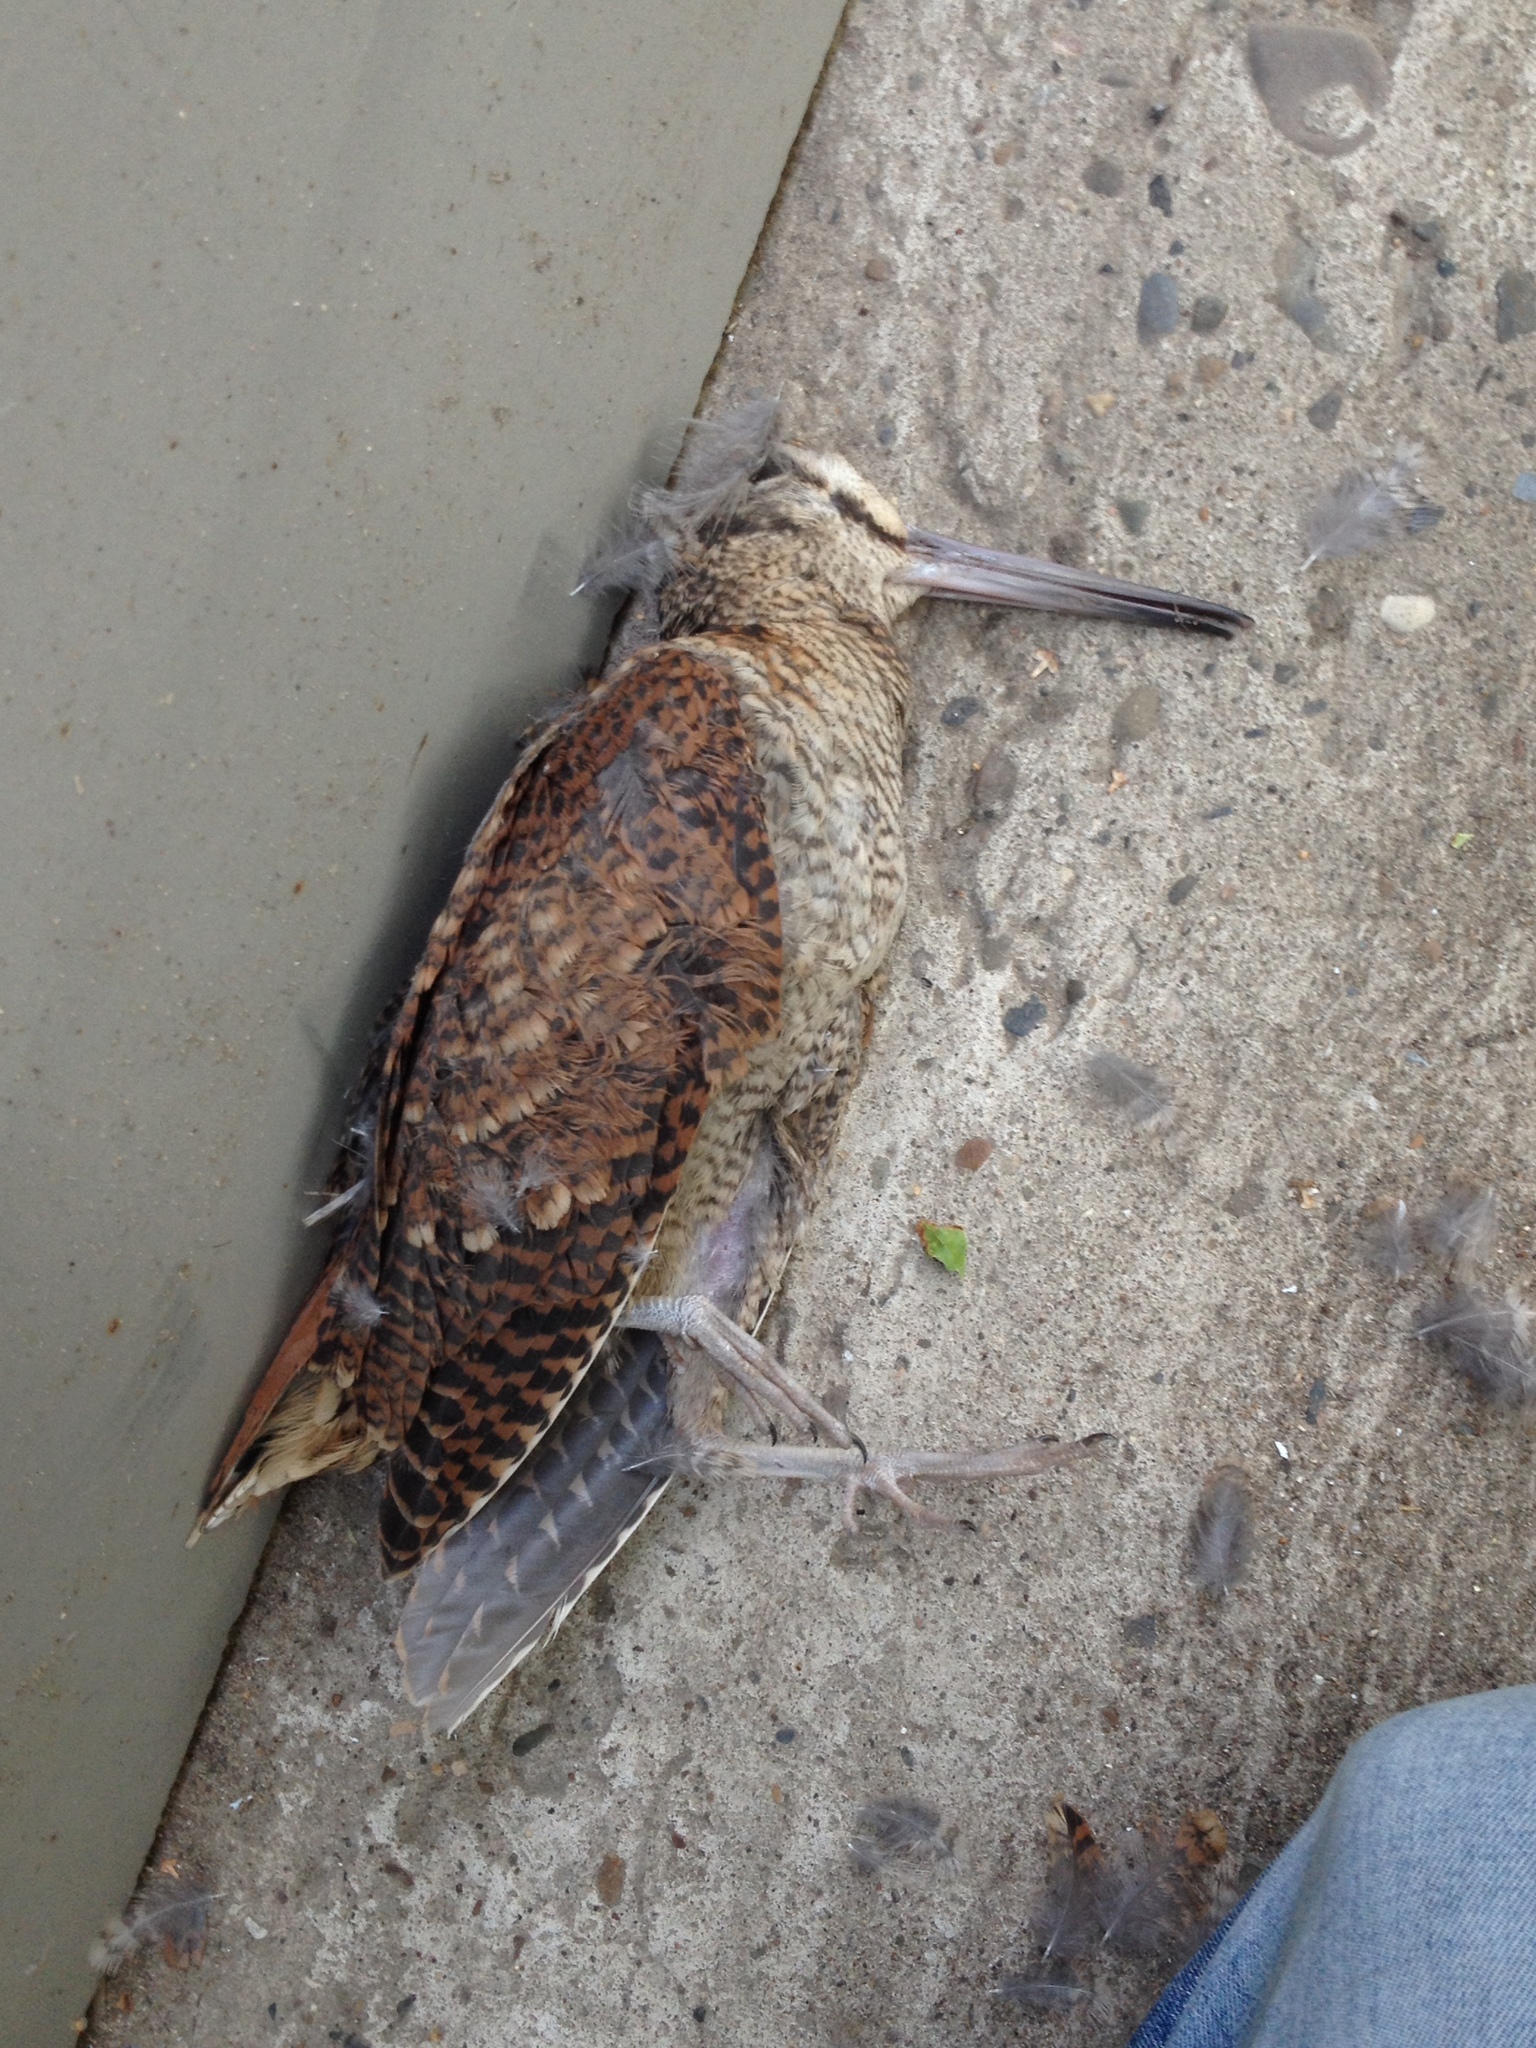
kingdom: Animalia
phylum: Chordata
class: Aves
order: Charadriiformes
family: Scolopacidae
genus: Scolopax
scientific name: Scolopax rusticola
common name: Eurasian woodcock
